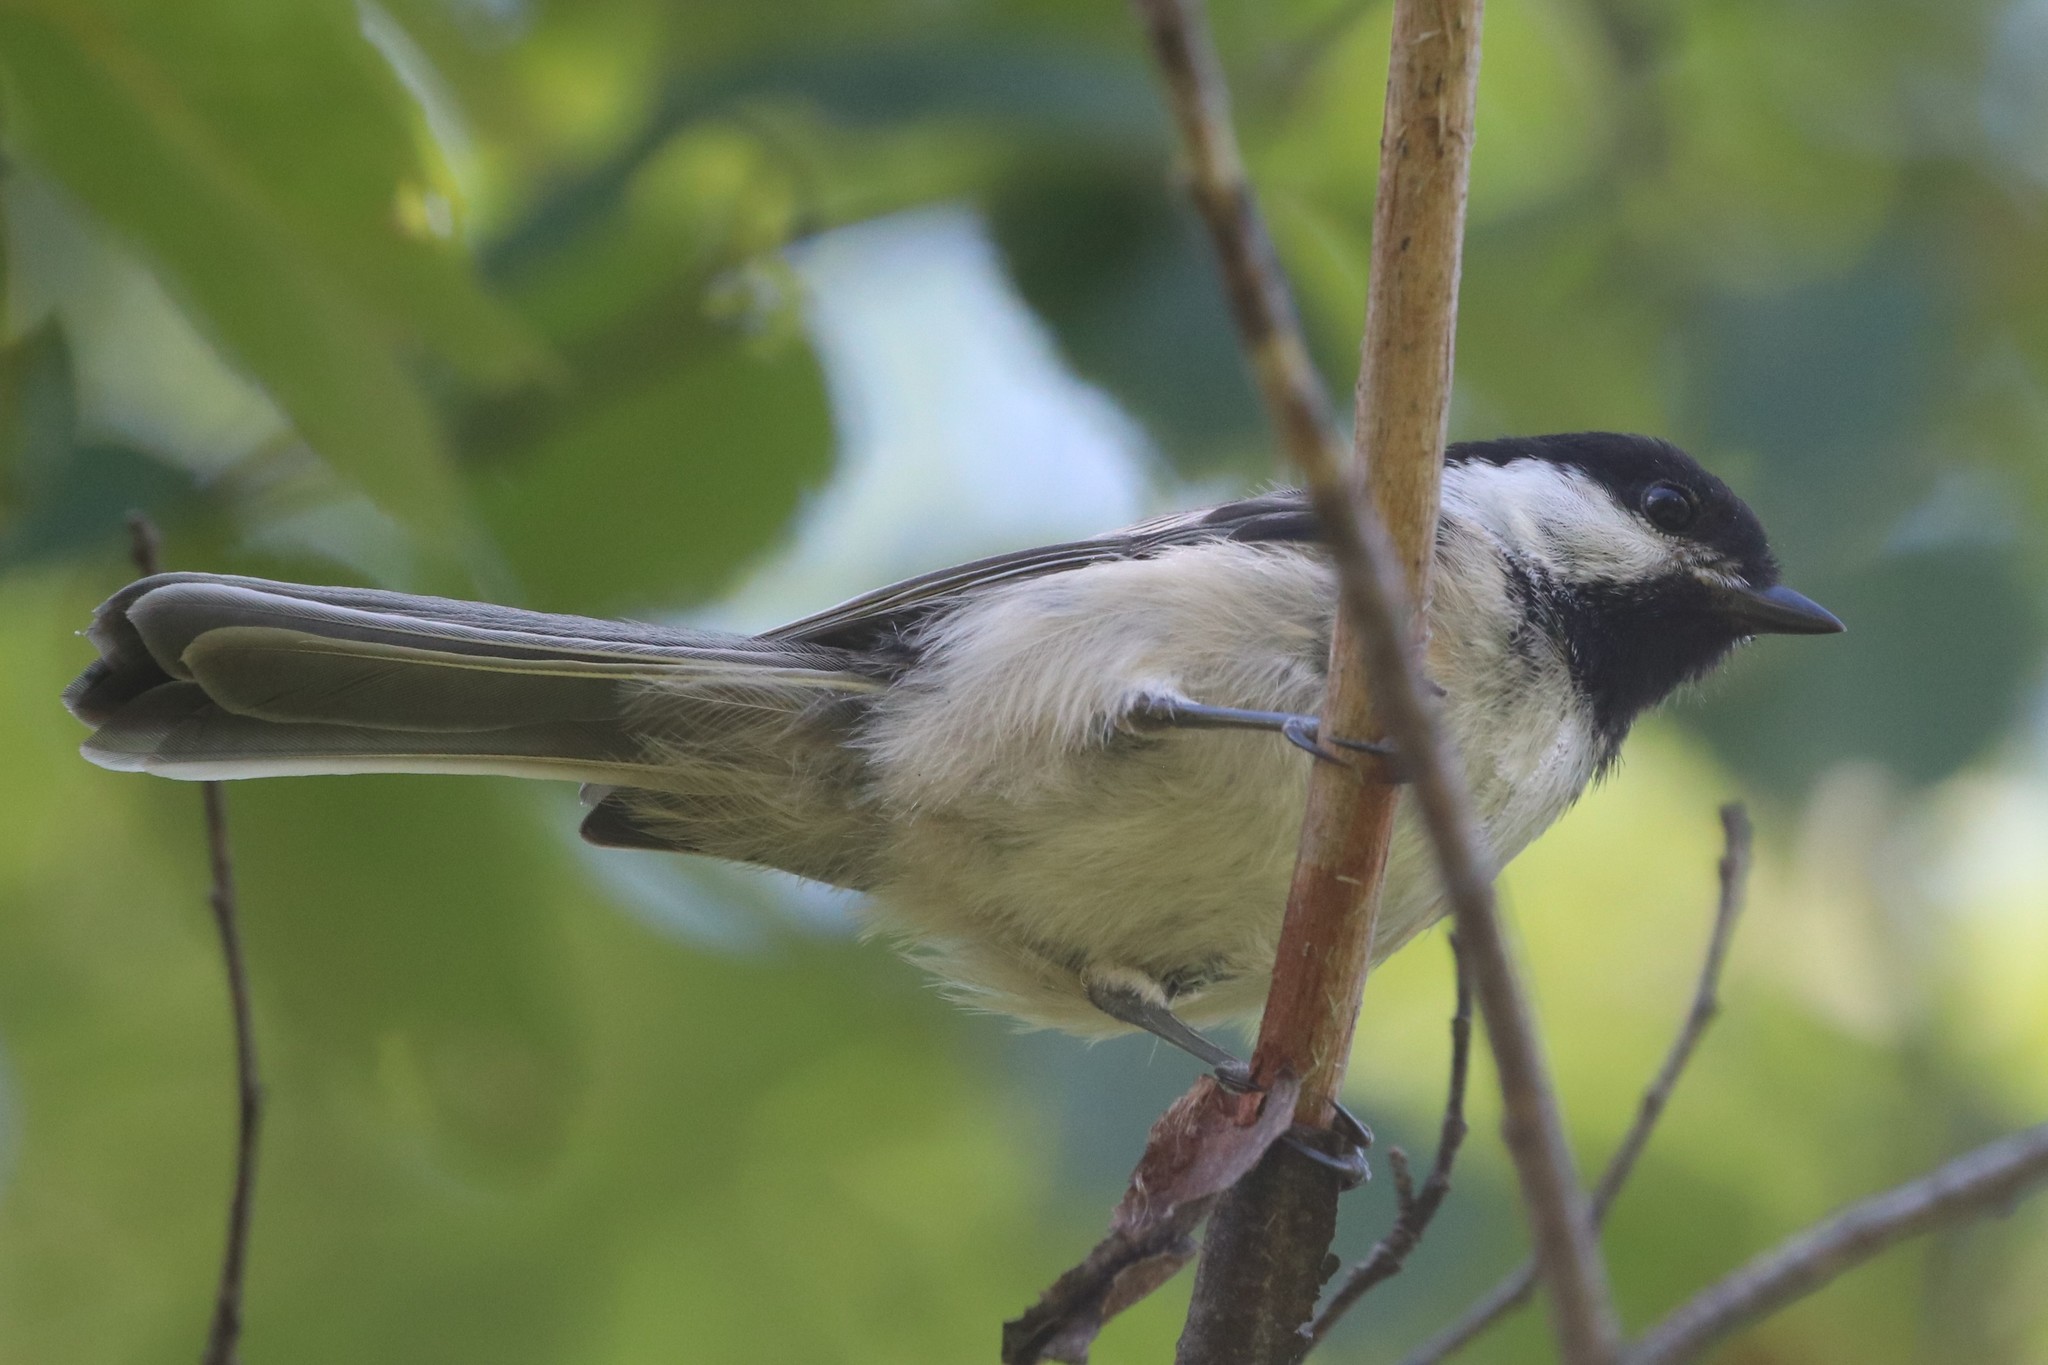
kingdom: Animalia
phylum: Chordata
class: Aves
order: Passeriformes
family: Paridae
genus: Poecile
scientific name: Poecile atricapillus
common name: Black-capped chickadee
